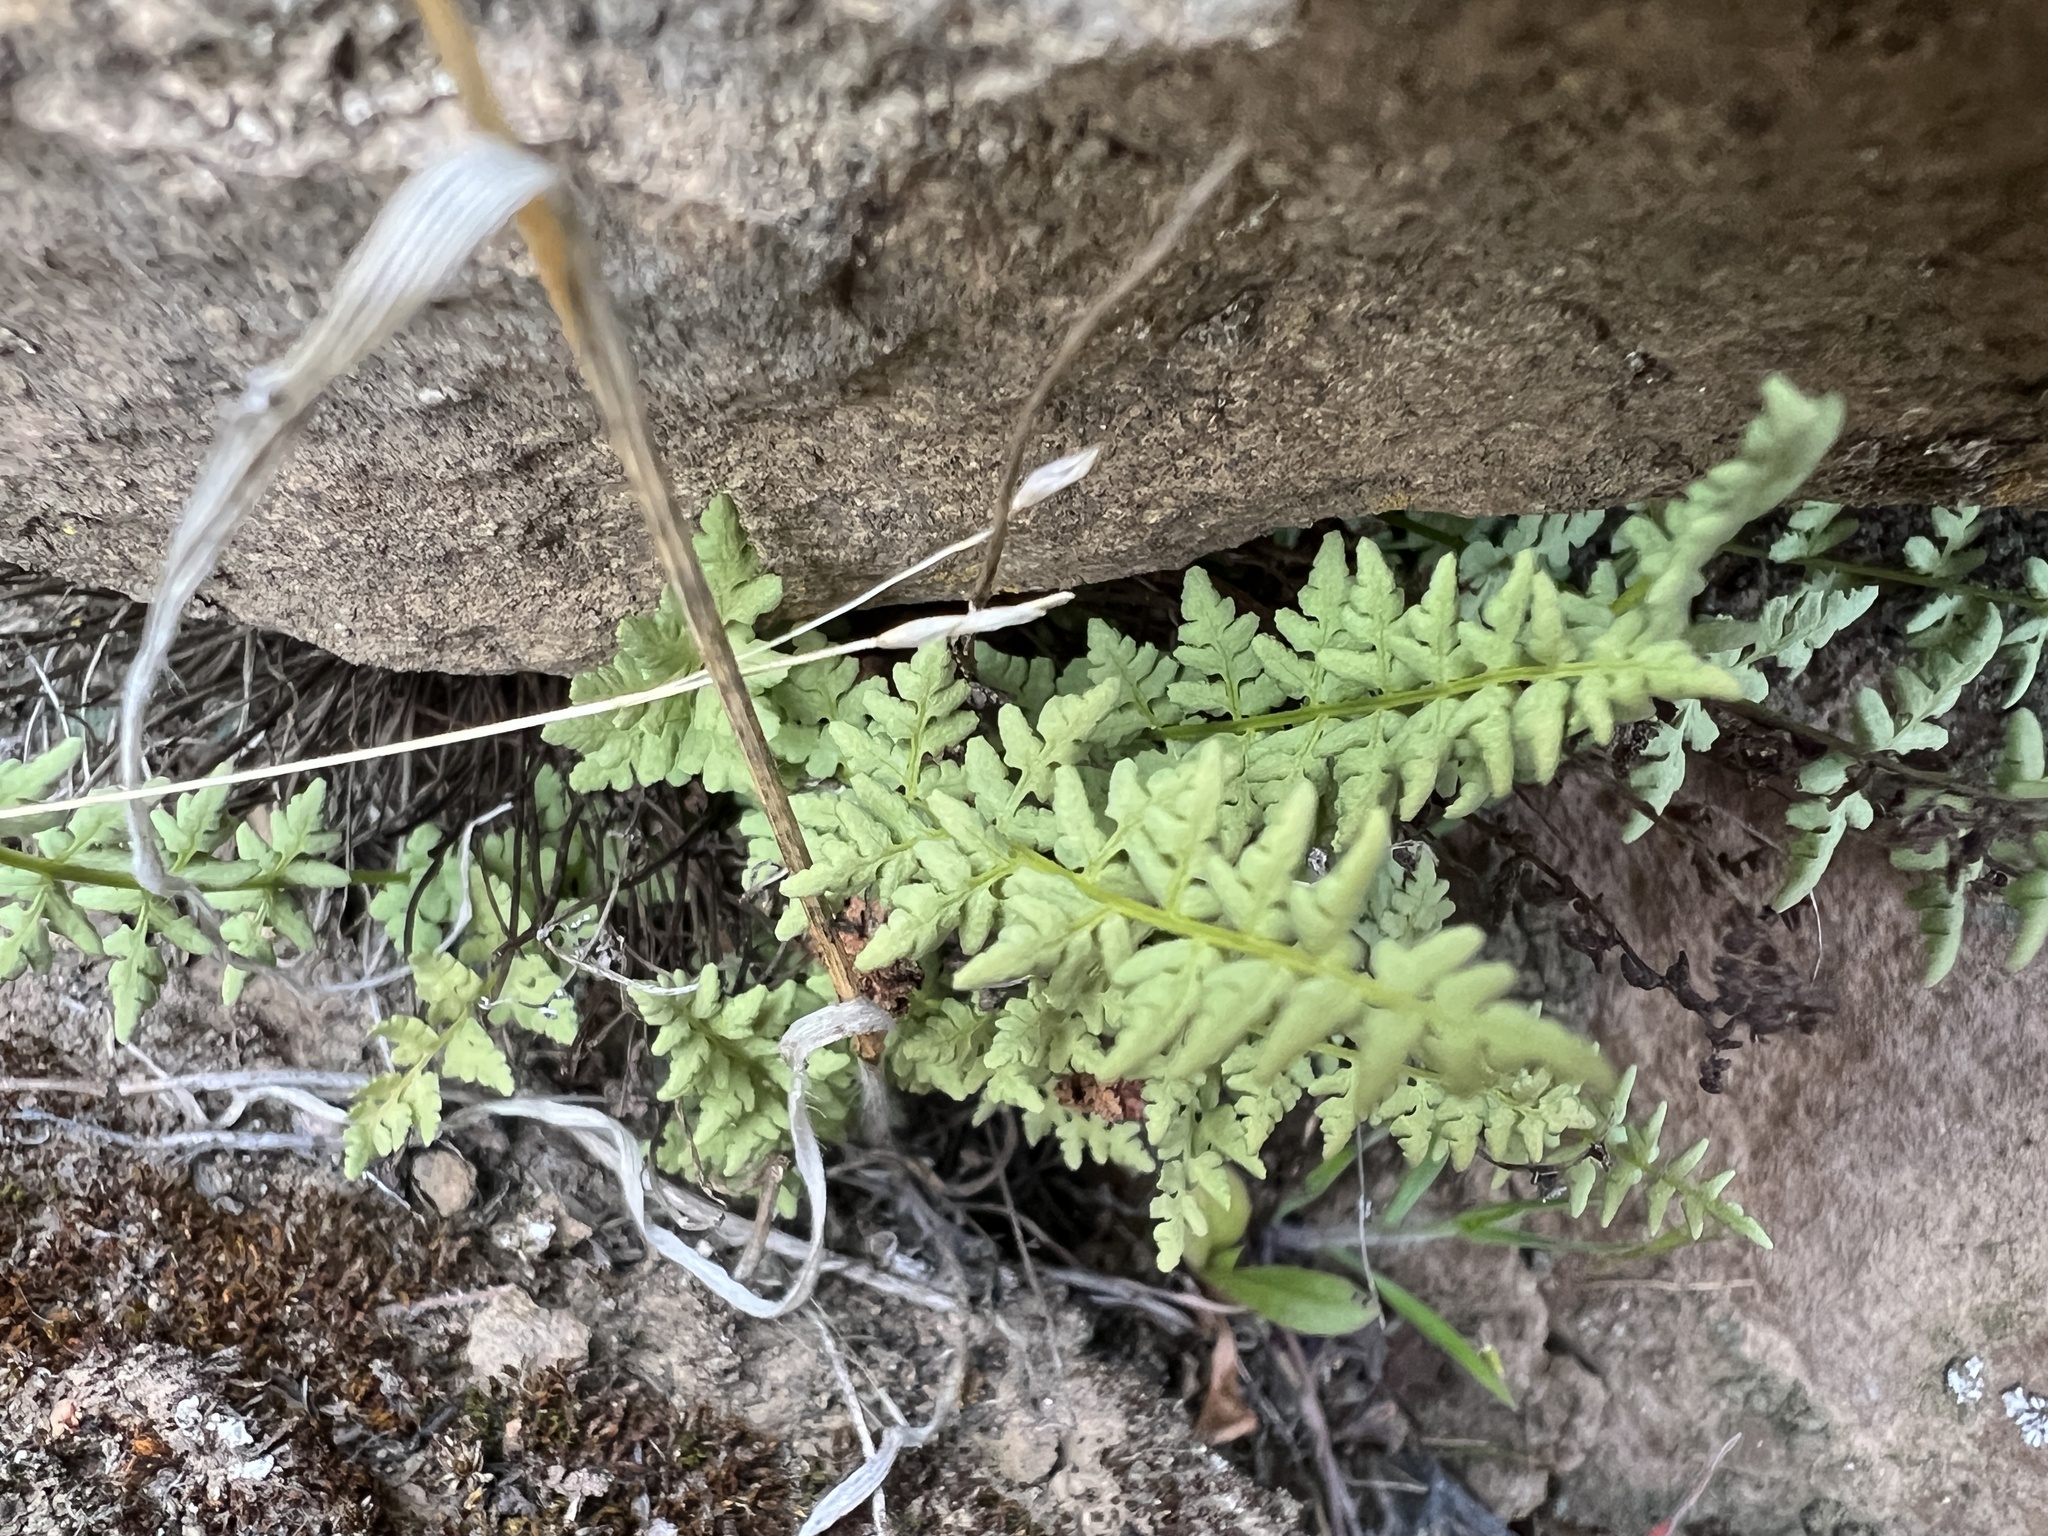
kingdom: Plantae
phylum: Tracheophyta
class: Polypodiopsida
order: Polypodiales
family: Woodsiaceae
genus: Physematium
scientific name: Physematium oreganum
